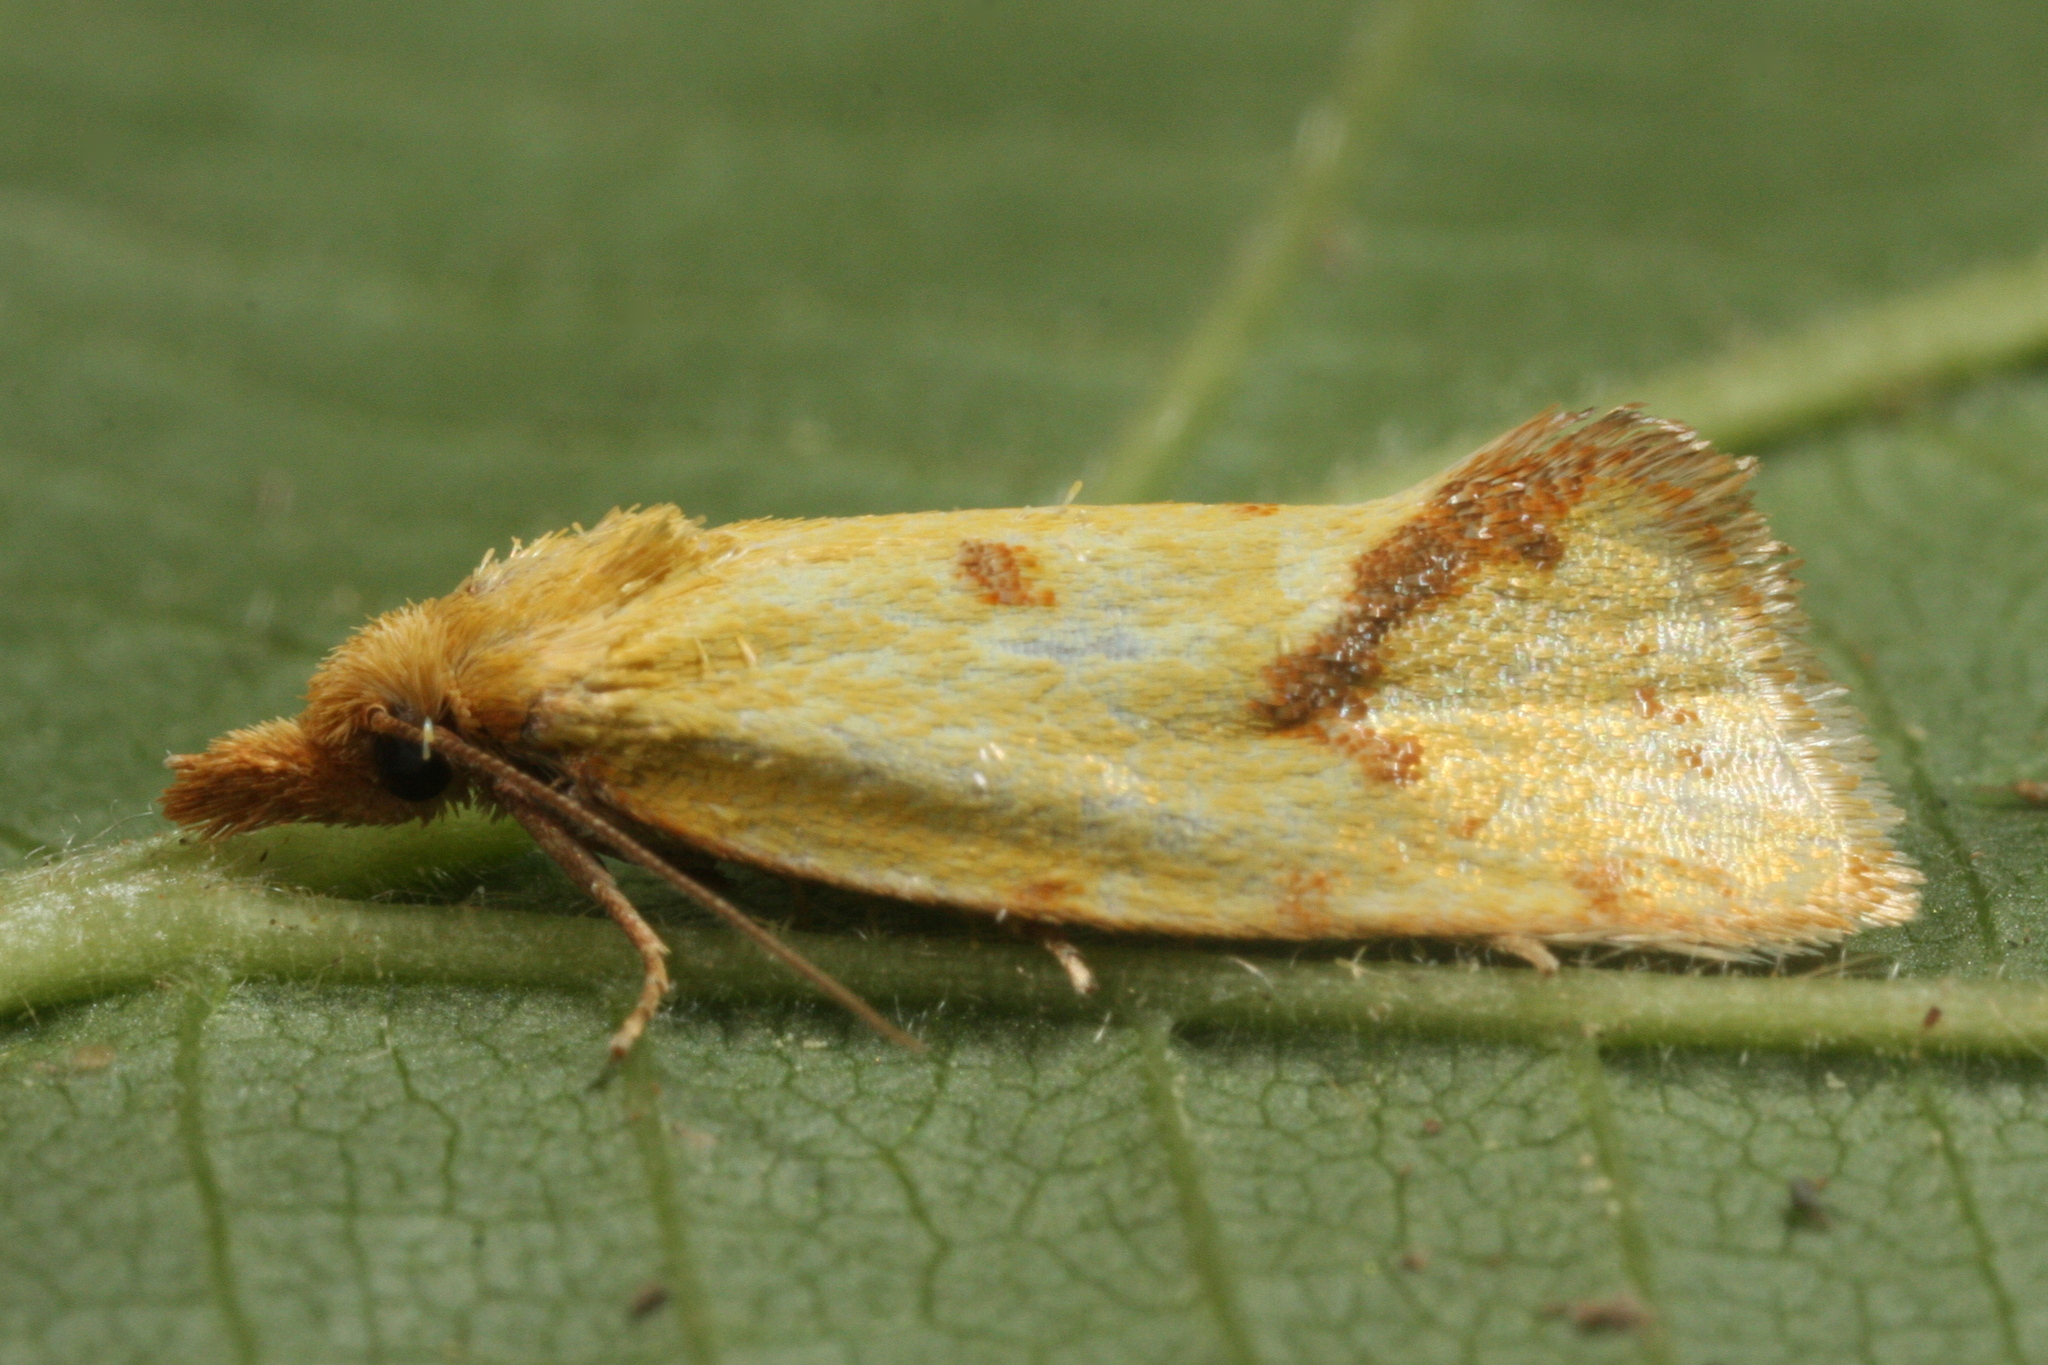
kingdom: Animalia
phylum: Arthropoda
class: Insecta
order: Lepidoptera
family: Tortricidae
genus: Agapeta
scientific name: Agapeta hamana
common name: Common yellow conch
